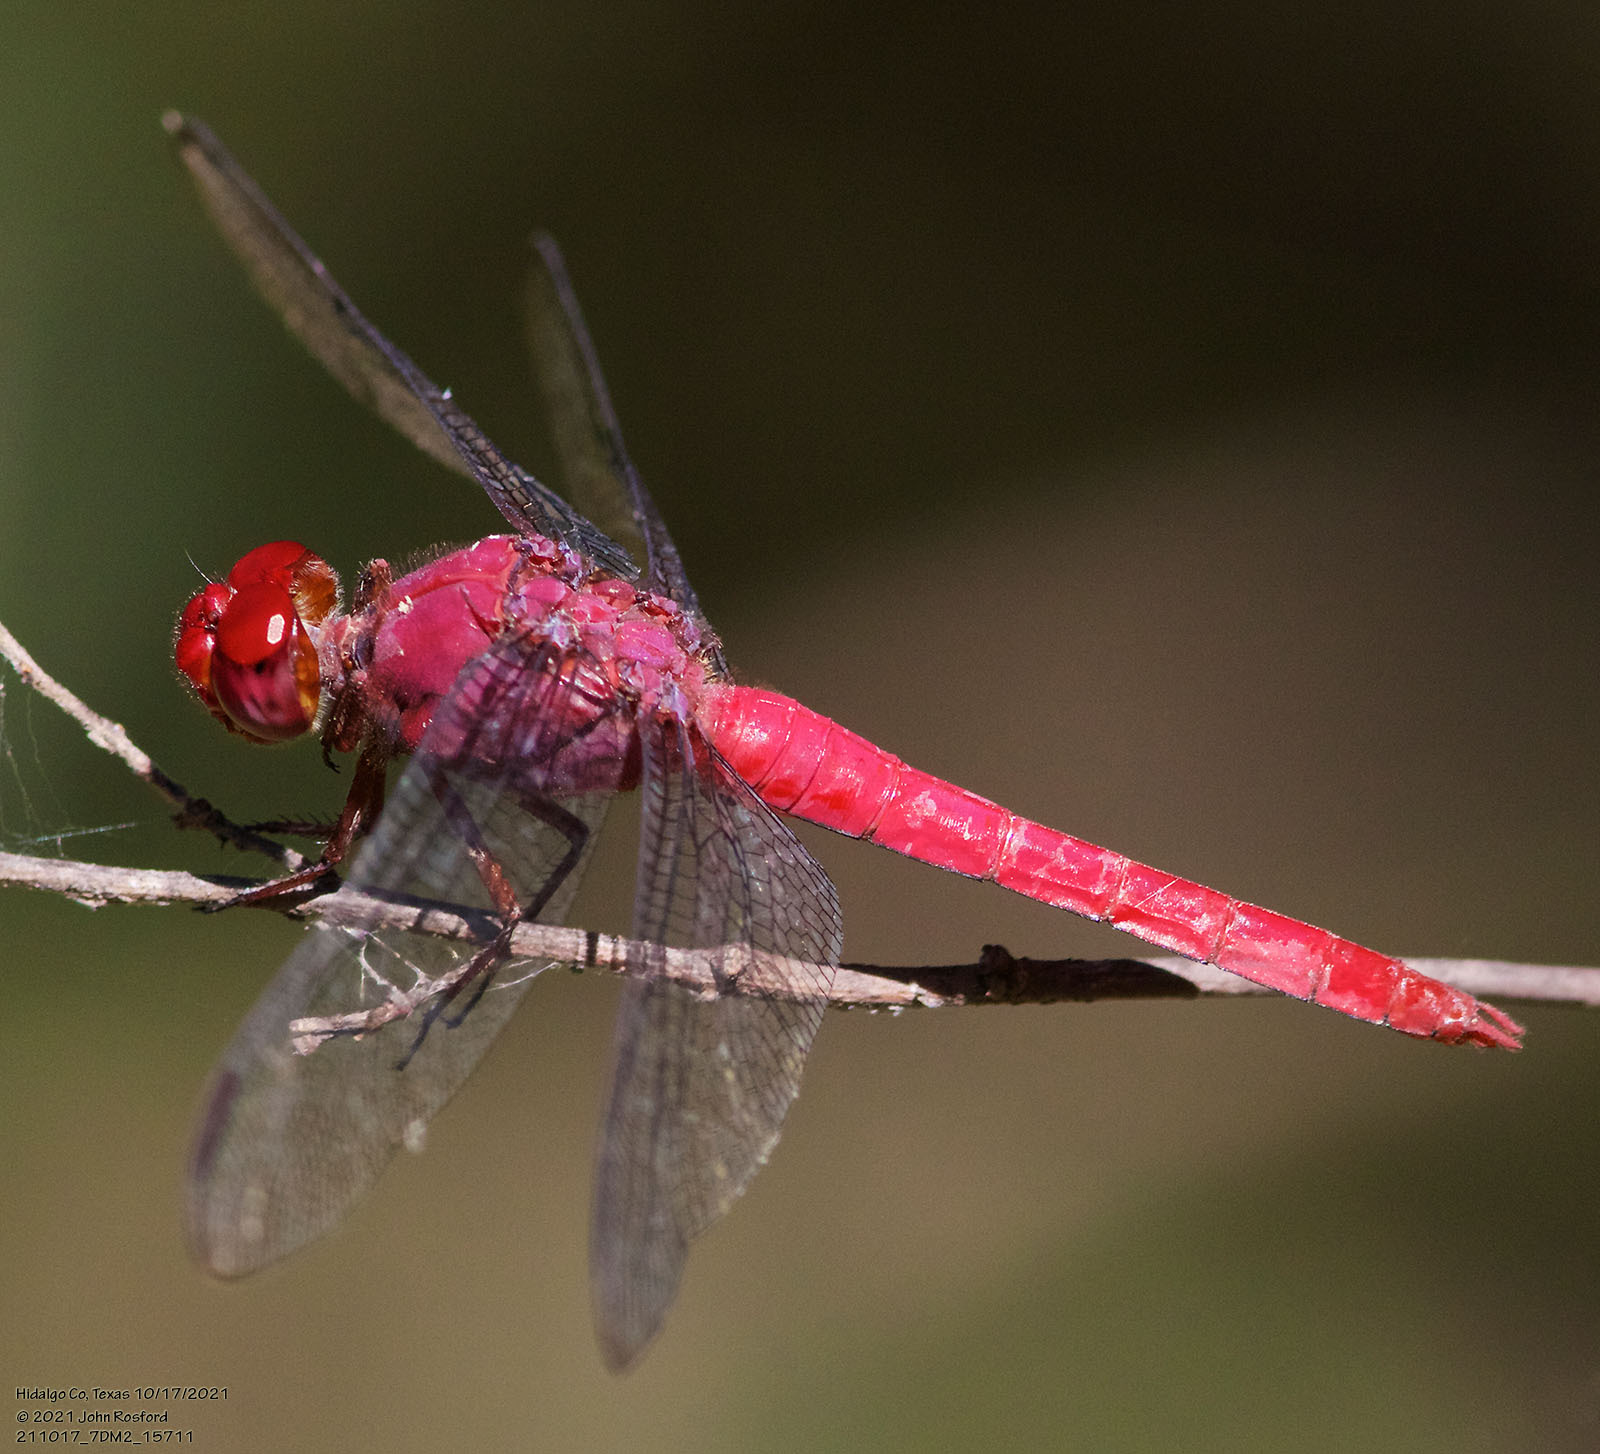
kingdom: Animalia
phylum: Arthropoda
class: Insecta
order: Odonata
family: Libellulidae
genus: Orthemis
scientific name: Orthemis discolor
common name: Carmine skimmer
